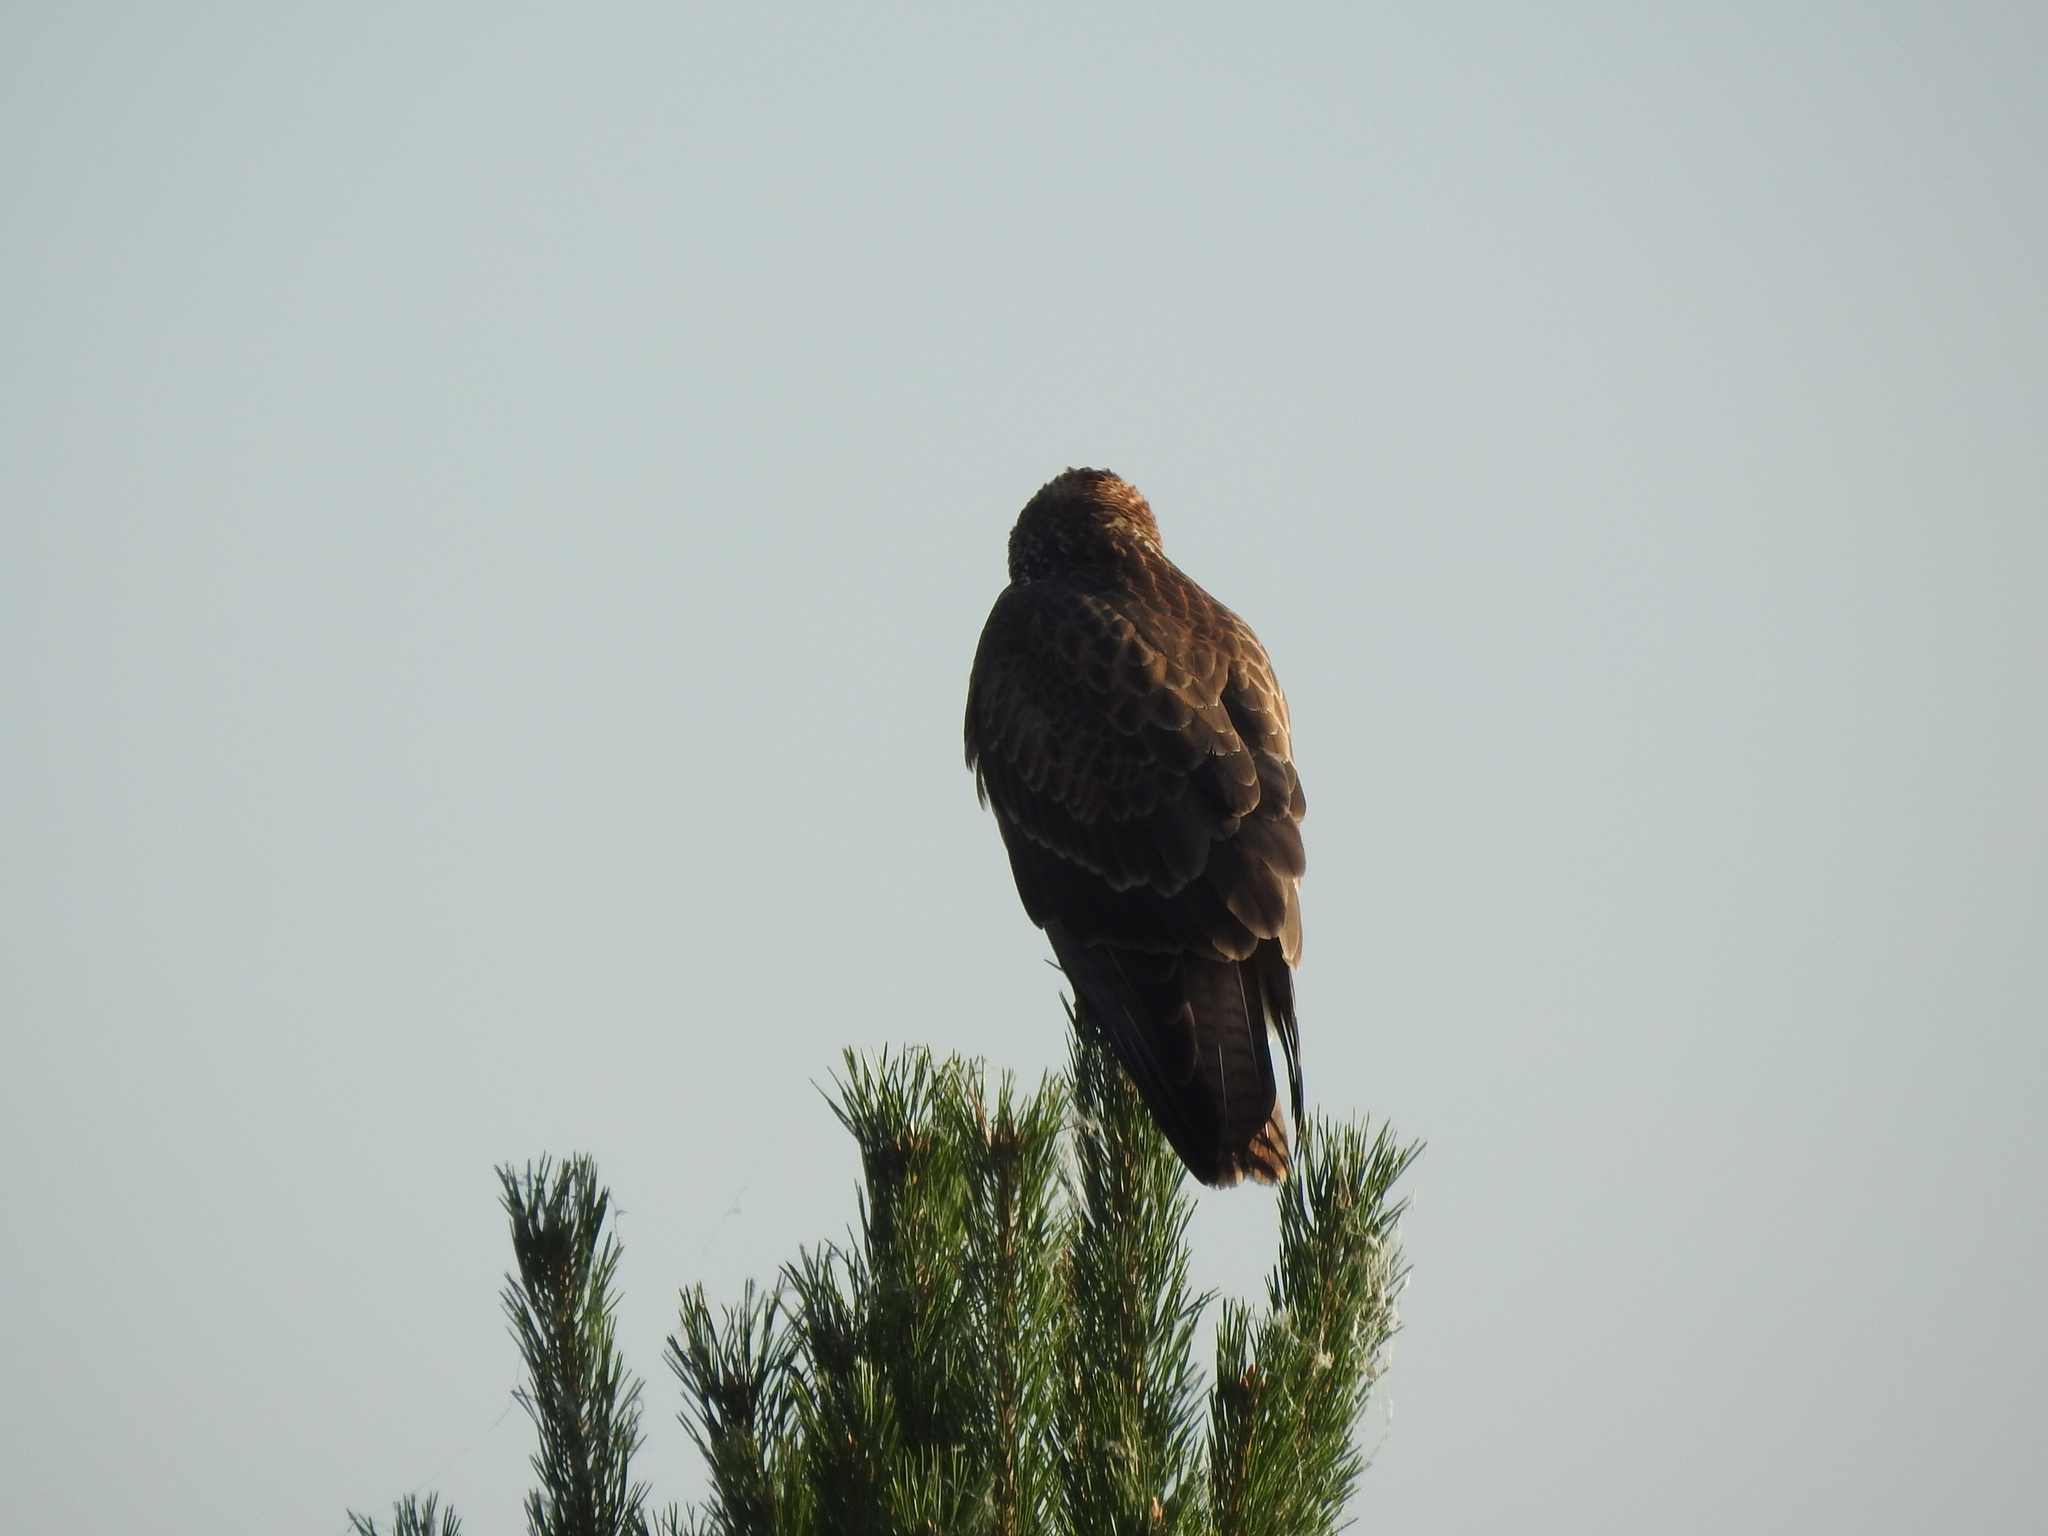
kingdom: Animalia
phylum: Chordata
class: Aves
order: Accipitriformes
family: Accipitridae
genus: Buteo
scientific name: Buteo buteo
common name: Common buzzard
